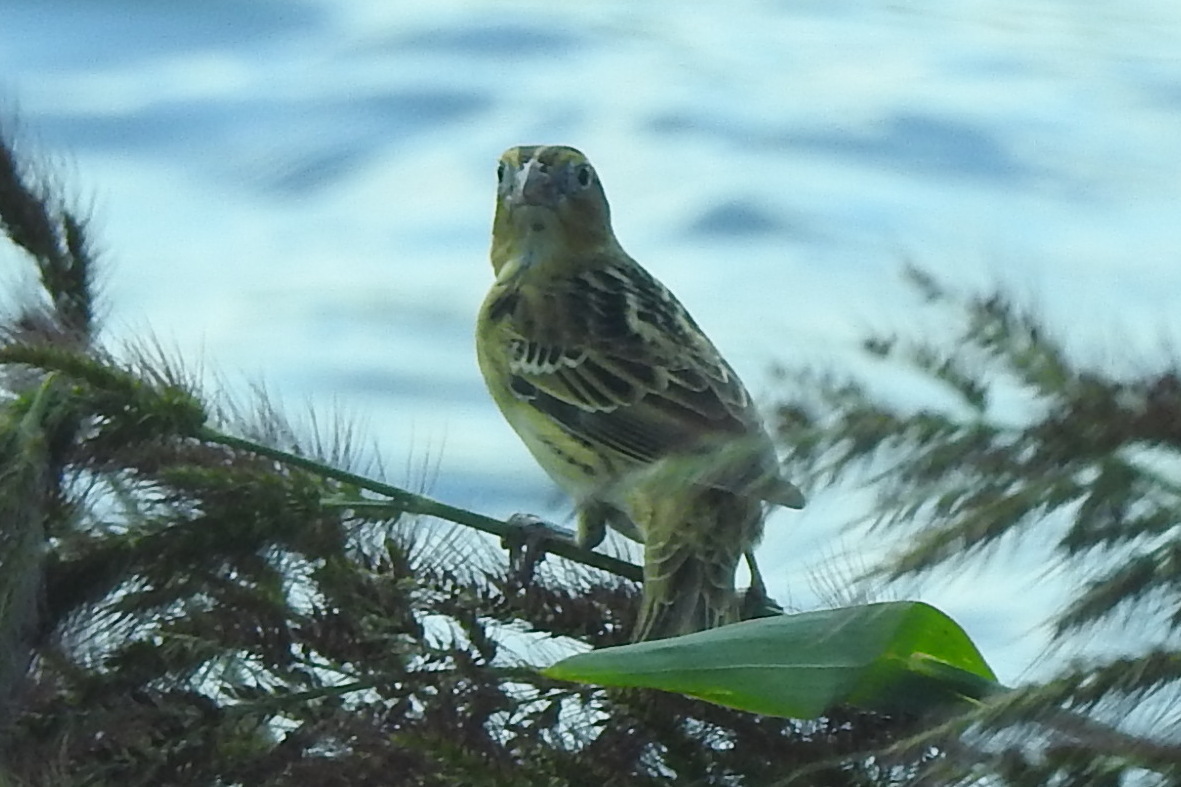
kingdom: Animalia
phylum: Chordata
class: Aves
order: Passeriformes
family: Icteridae
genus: Dolichonyx
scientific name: Dolichonyx oryzivorus
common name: Bobolink
